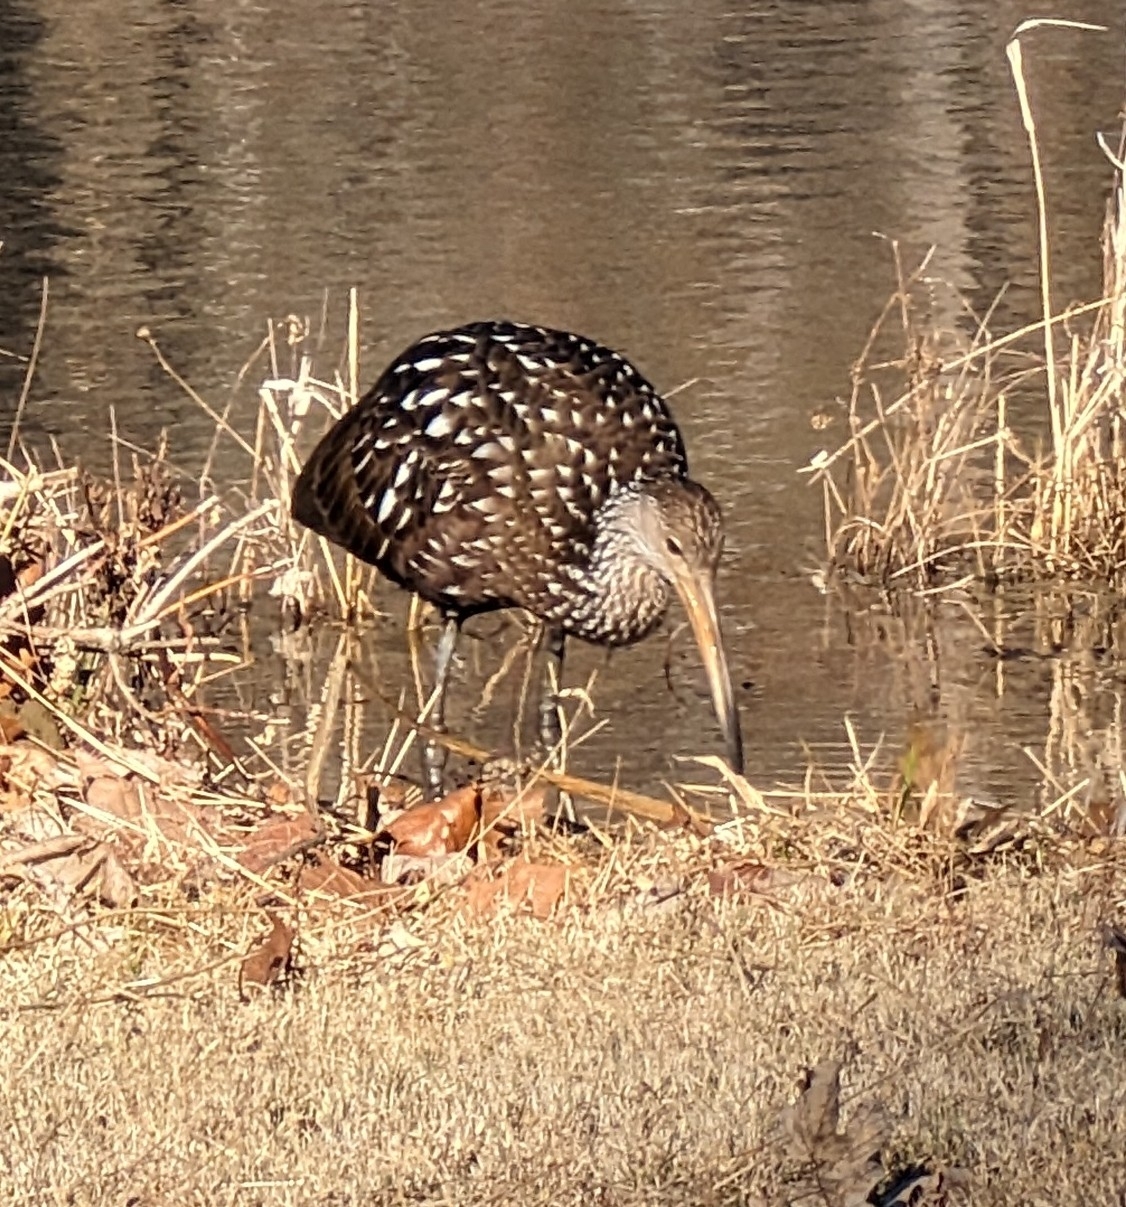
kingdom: Animalia
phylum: Chordata
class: Aves
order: Gruiformes
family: Aramidae
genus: Aramus
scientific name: Aramus guarauna
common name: Limpkin
